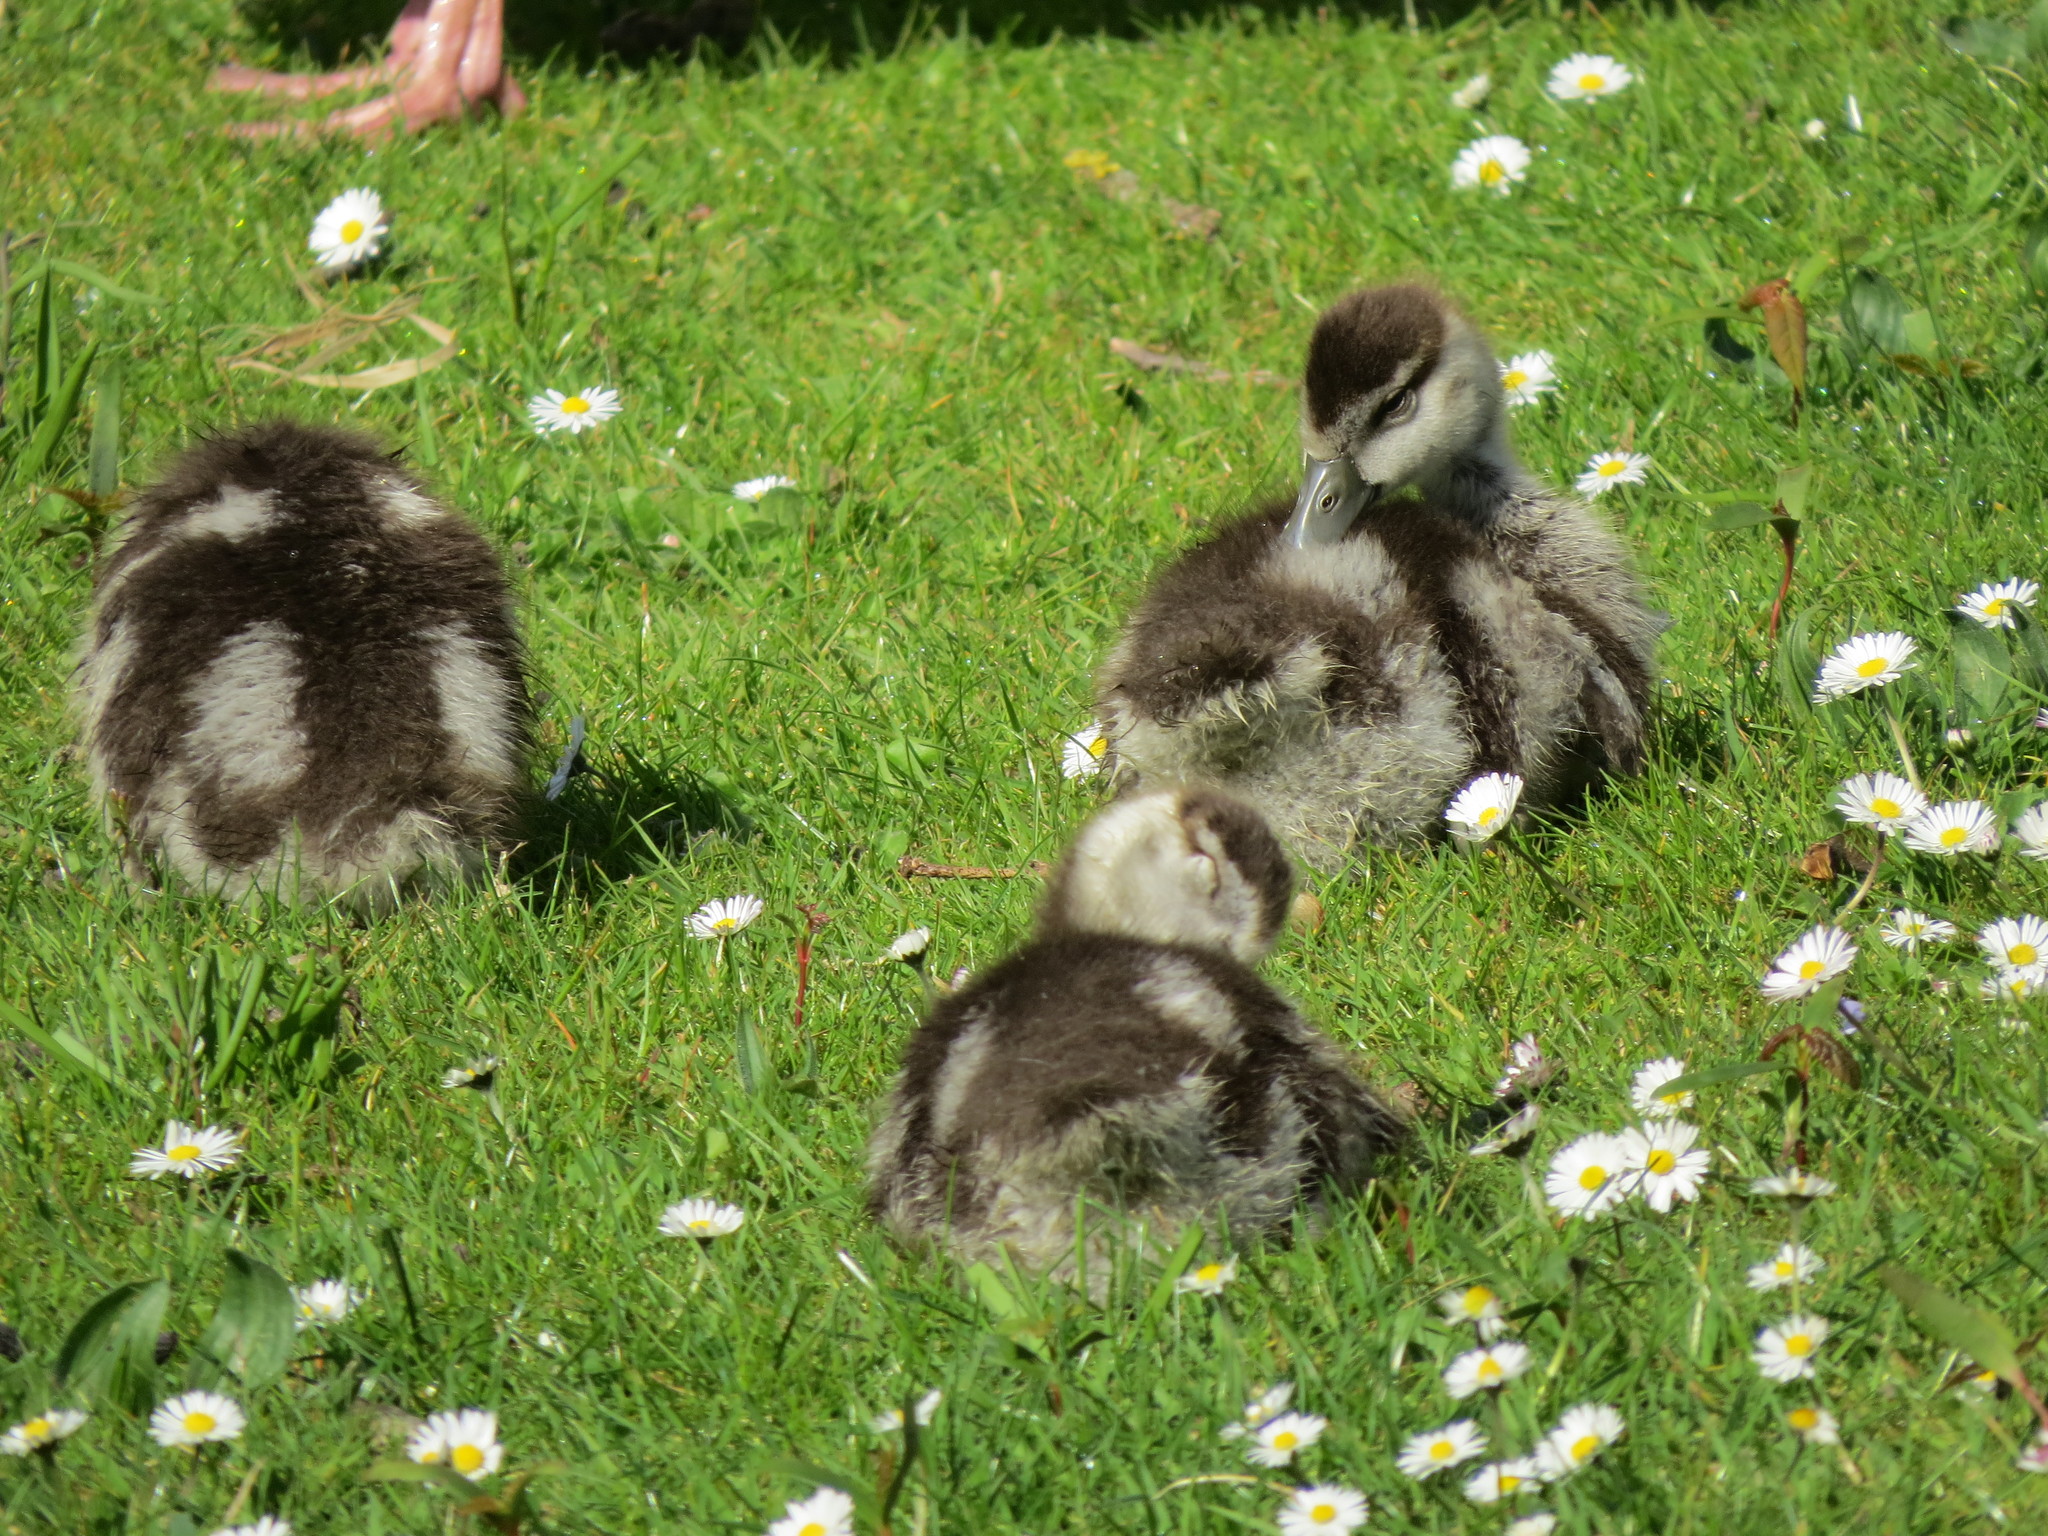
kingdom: Animalia
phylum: Chordata
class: Aves
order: Anseriformes
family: Anatidae
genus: Alopochen
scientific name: Alopochen aegyptiaca
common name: Egyptian goose
